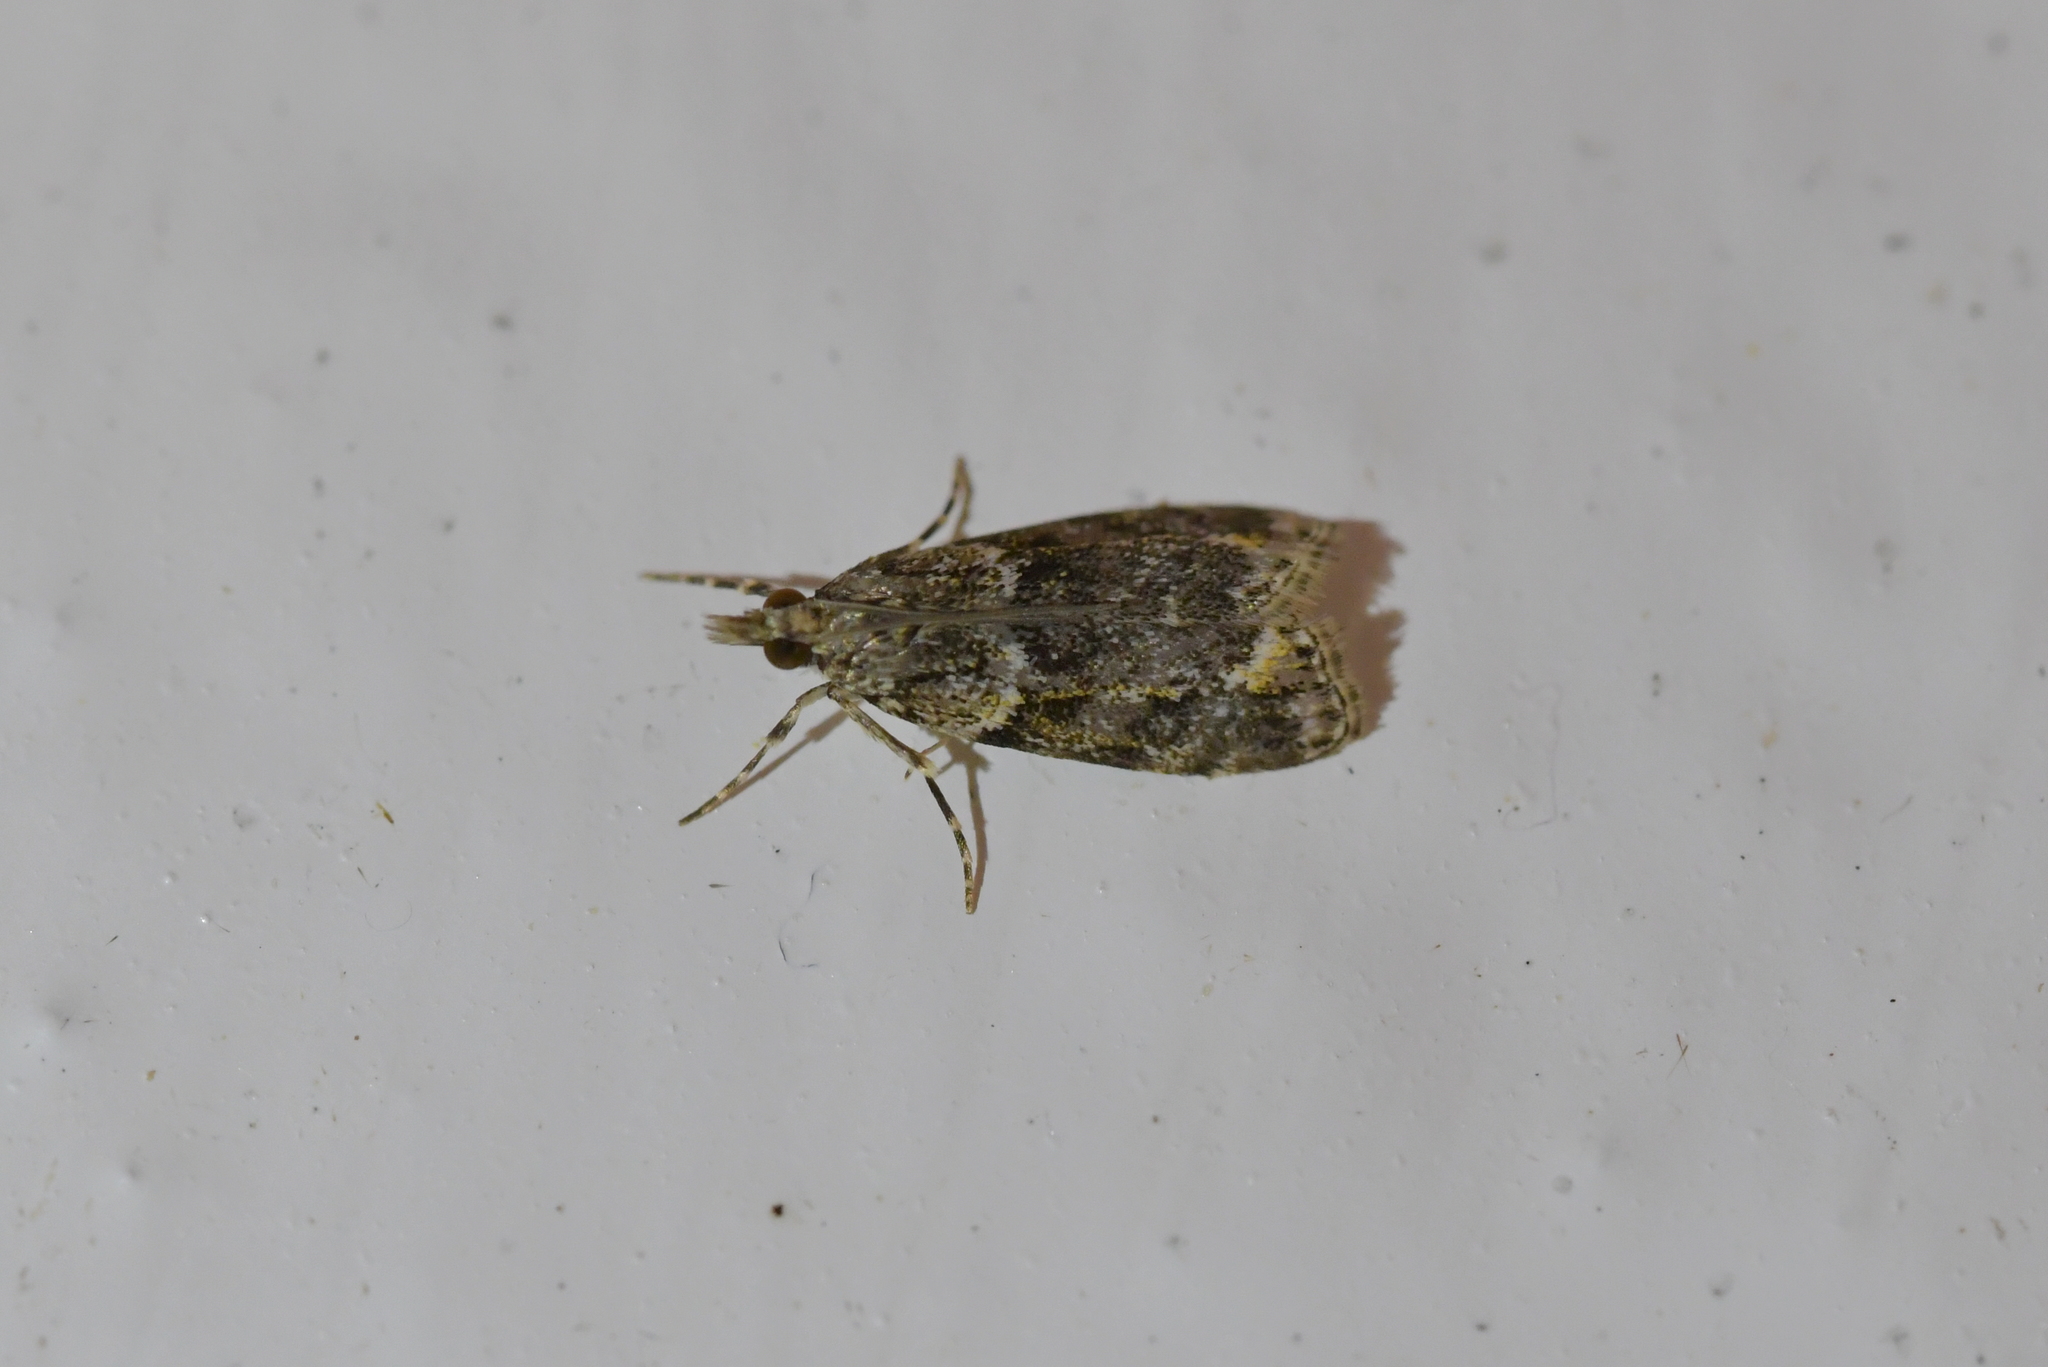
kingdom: Animalia
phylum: Arthropoda
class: Insecta
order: Lepidoptera
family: Crambidae
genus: Eudonia
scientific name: Eudonia minualis
